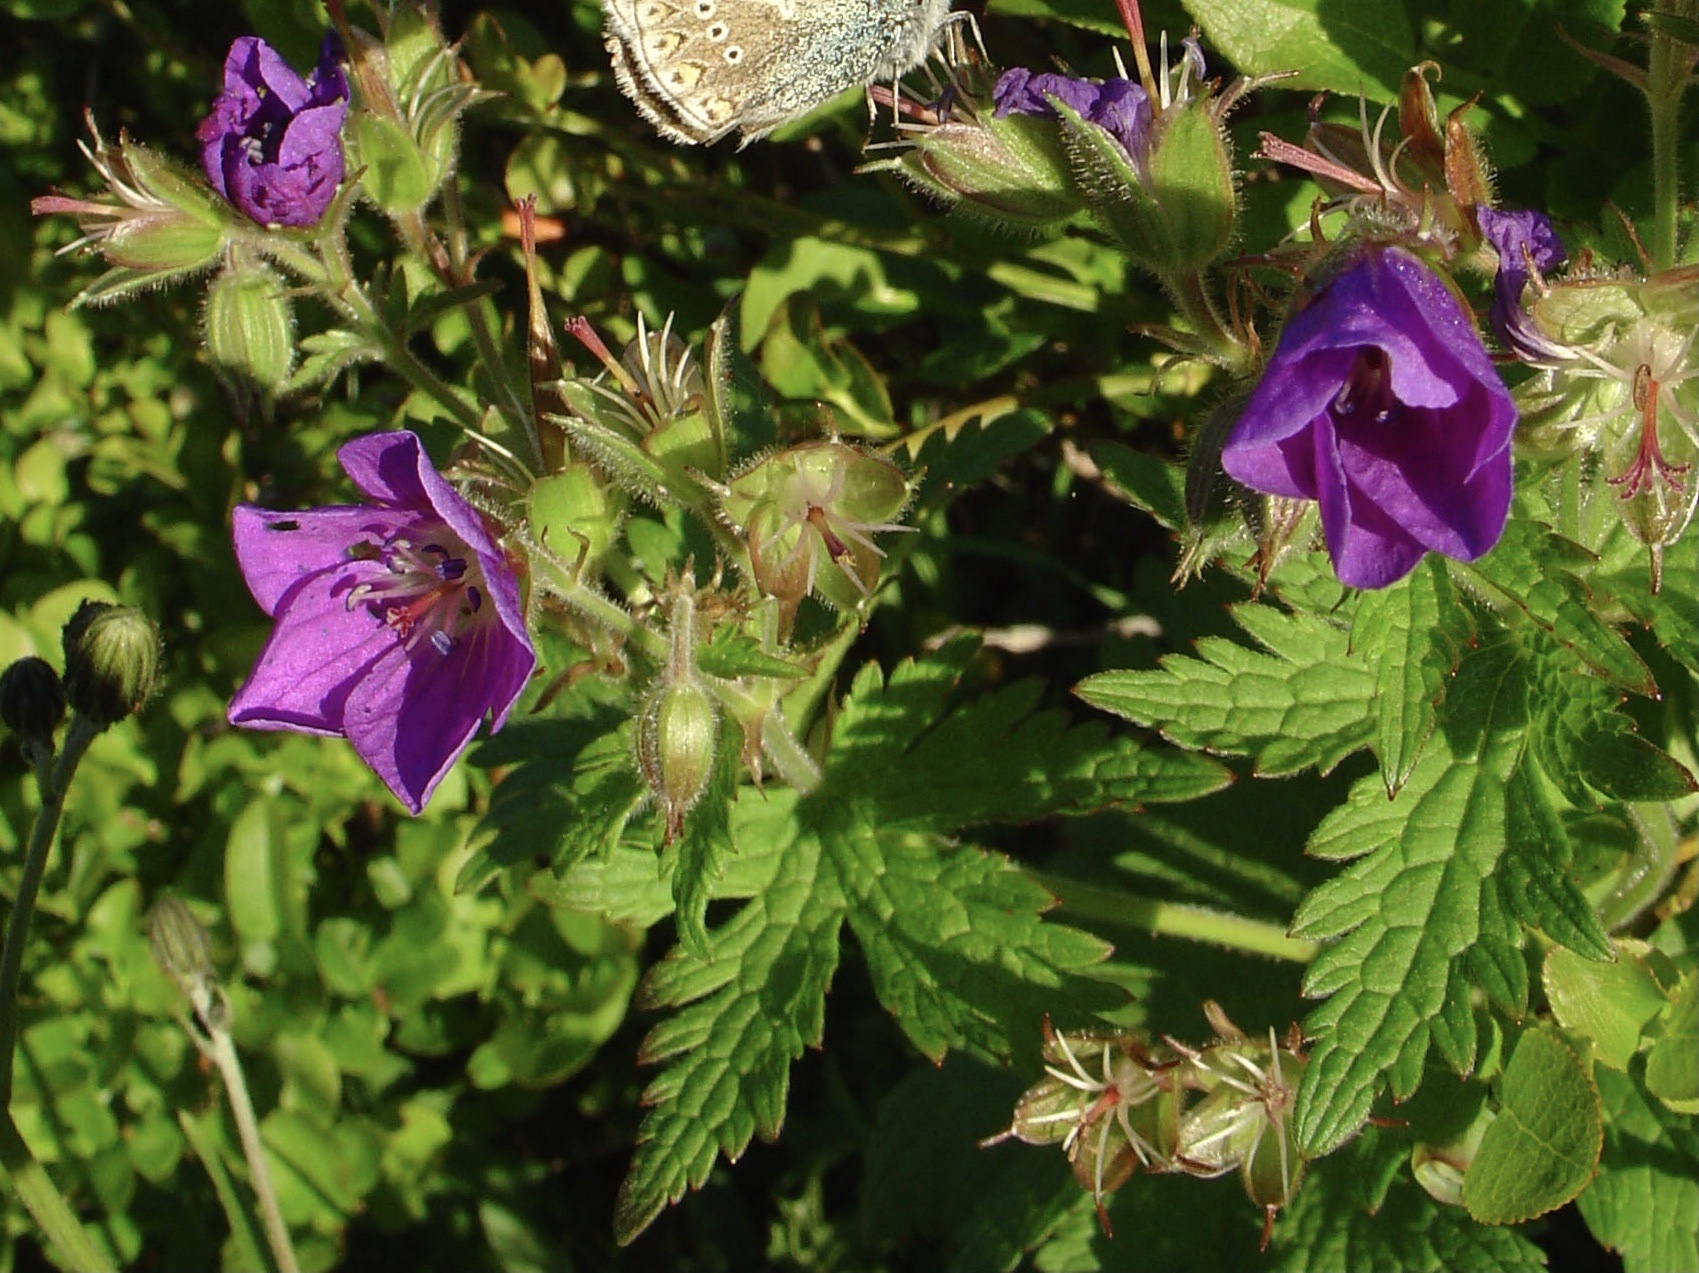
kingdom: Plantae
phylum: Tracheophyta
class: Magnoliopsida
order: Geraniales
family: Geraniaceae
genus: Geranium
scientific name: Geranium sylvaticum
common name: Wood crane's-bill
